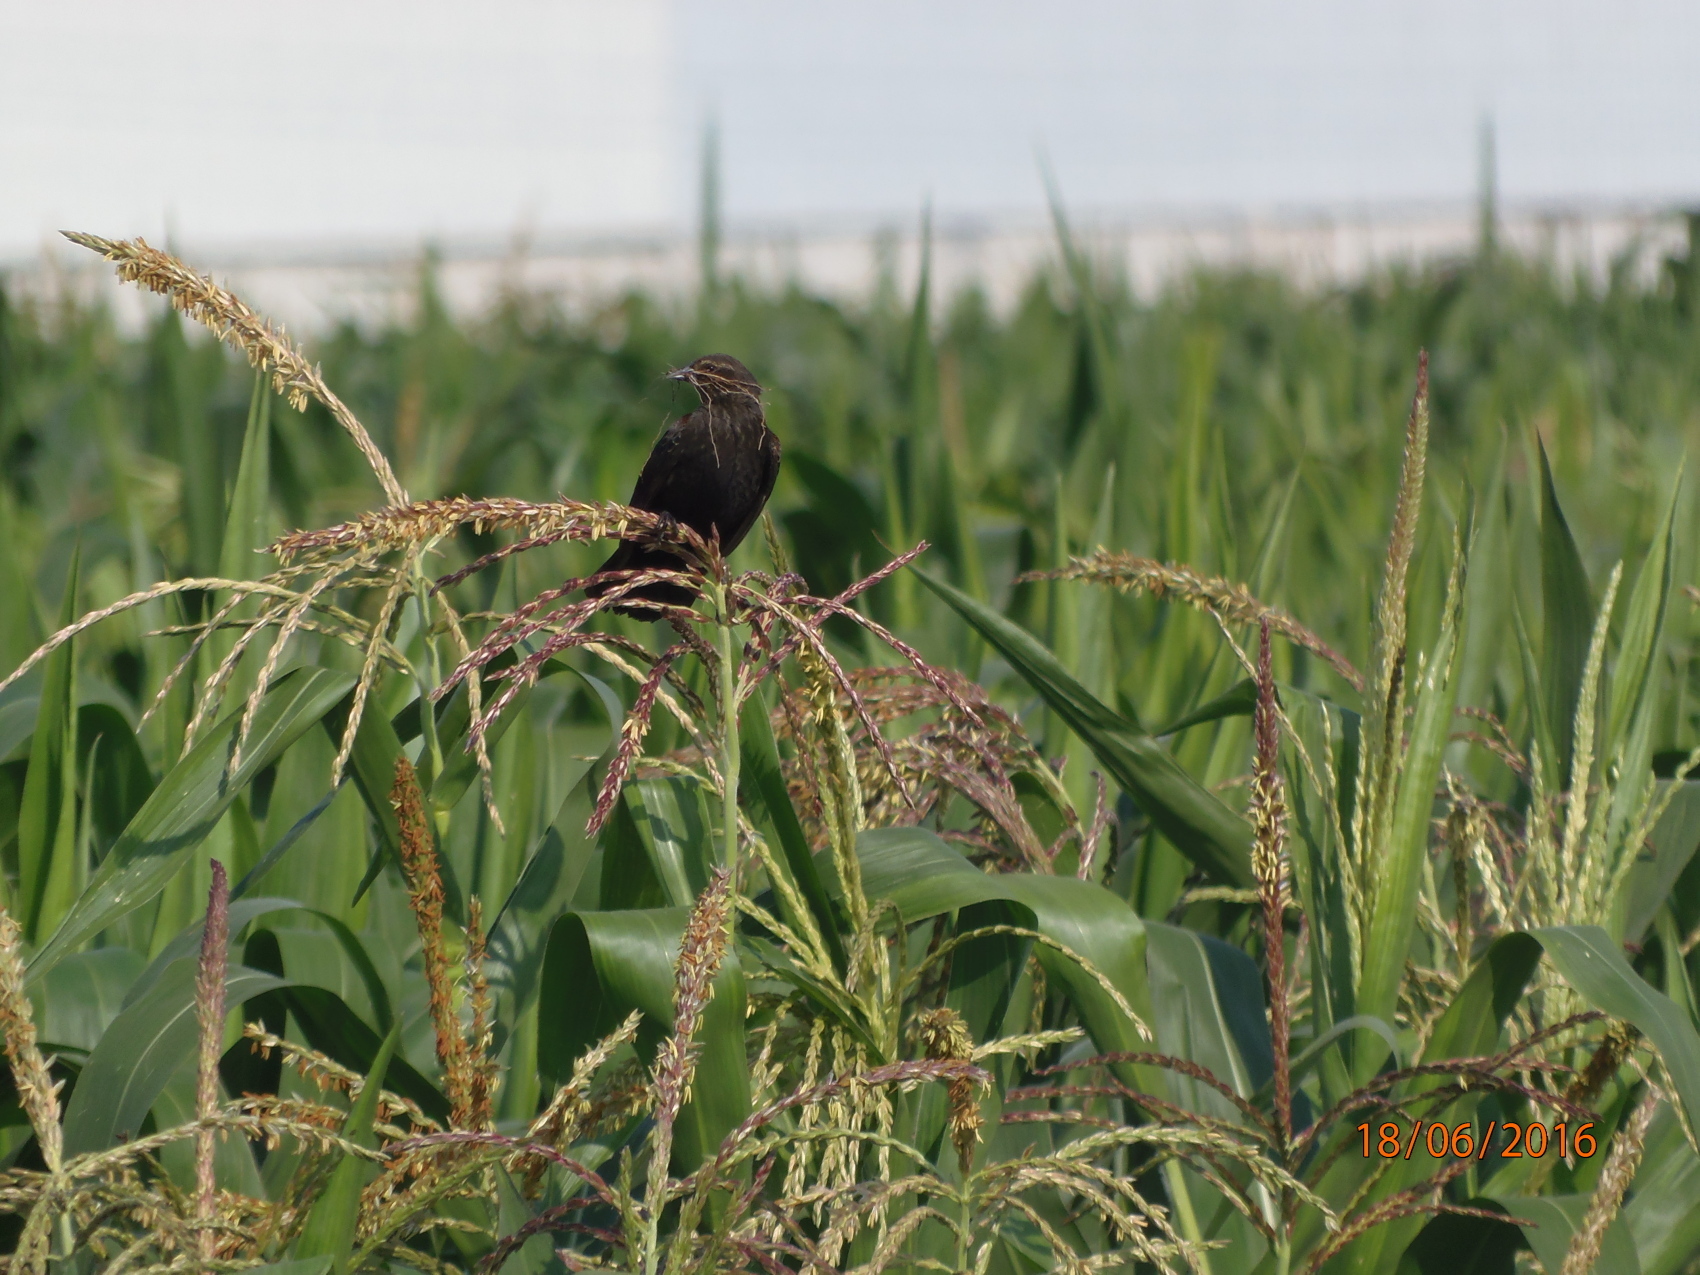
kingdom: Animalia
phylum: Chordata
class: Aves
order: Passeriformes
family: Icteridae
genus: Agelaius
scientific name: Agelaius phoeniceus
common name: Red-winged blackbird
